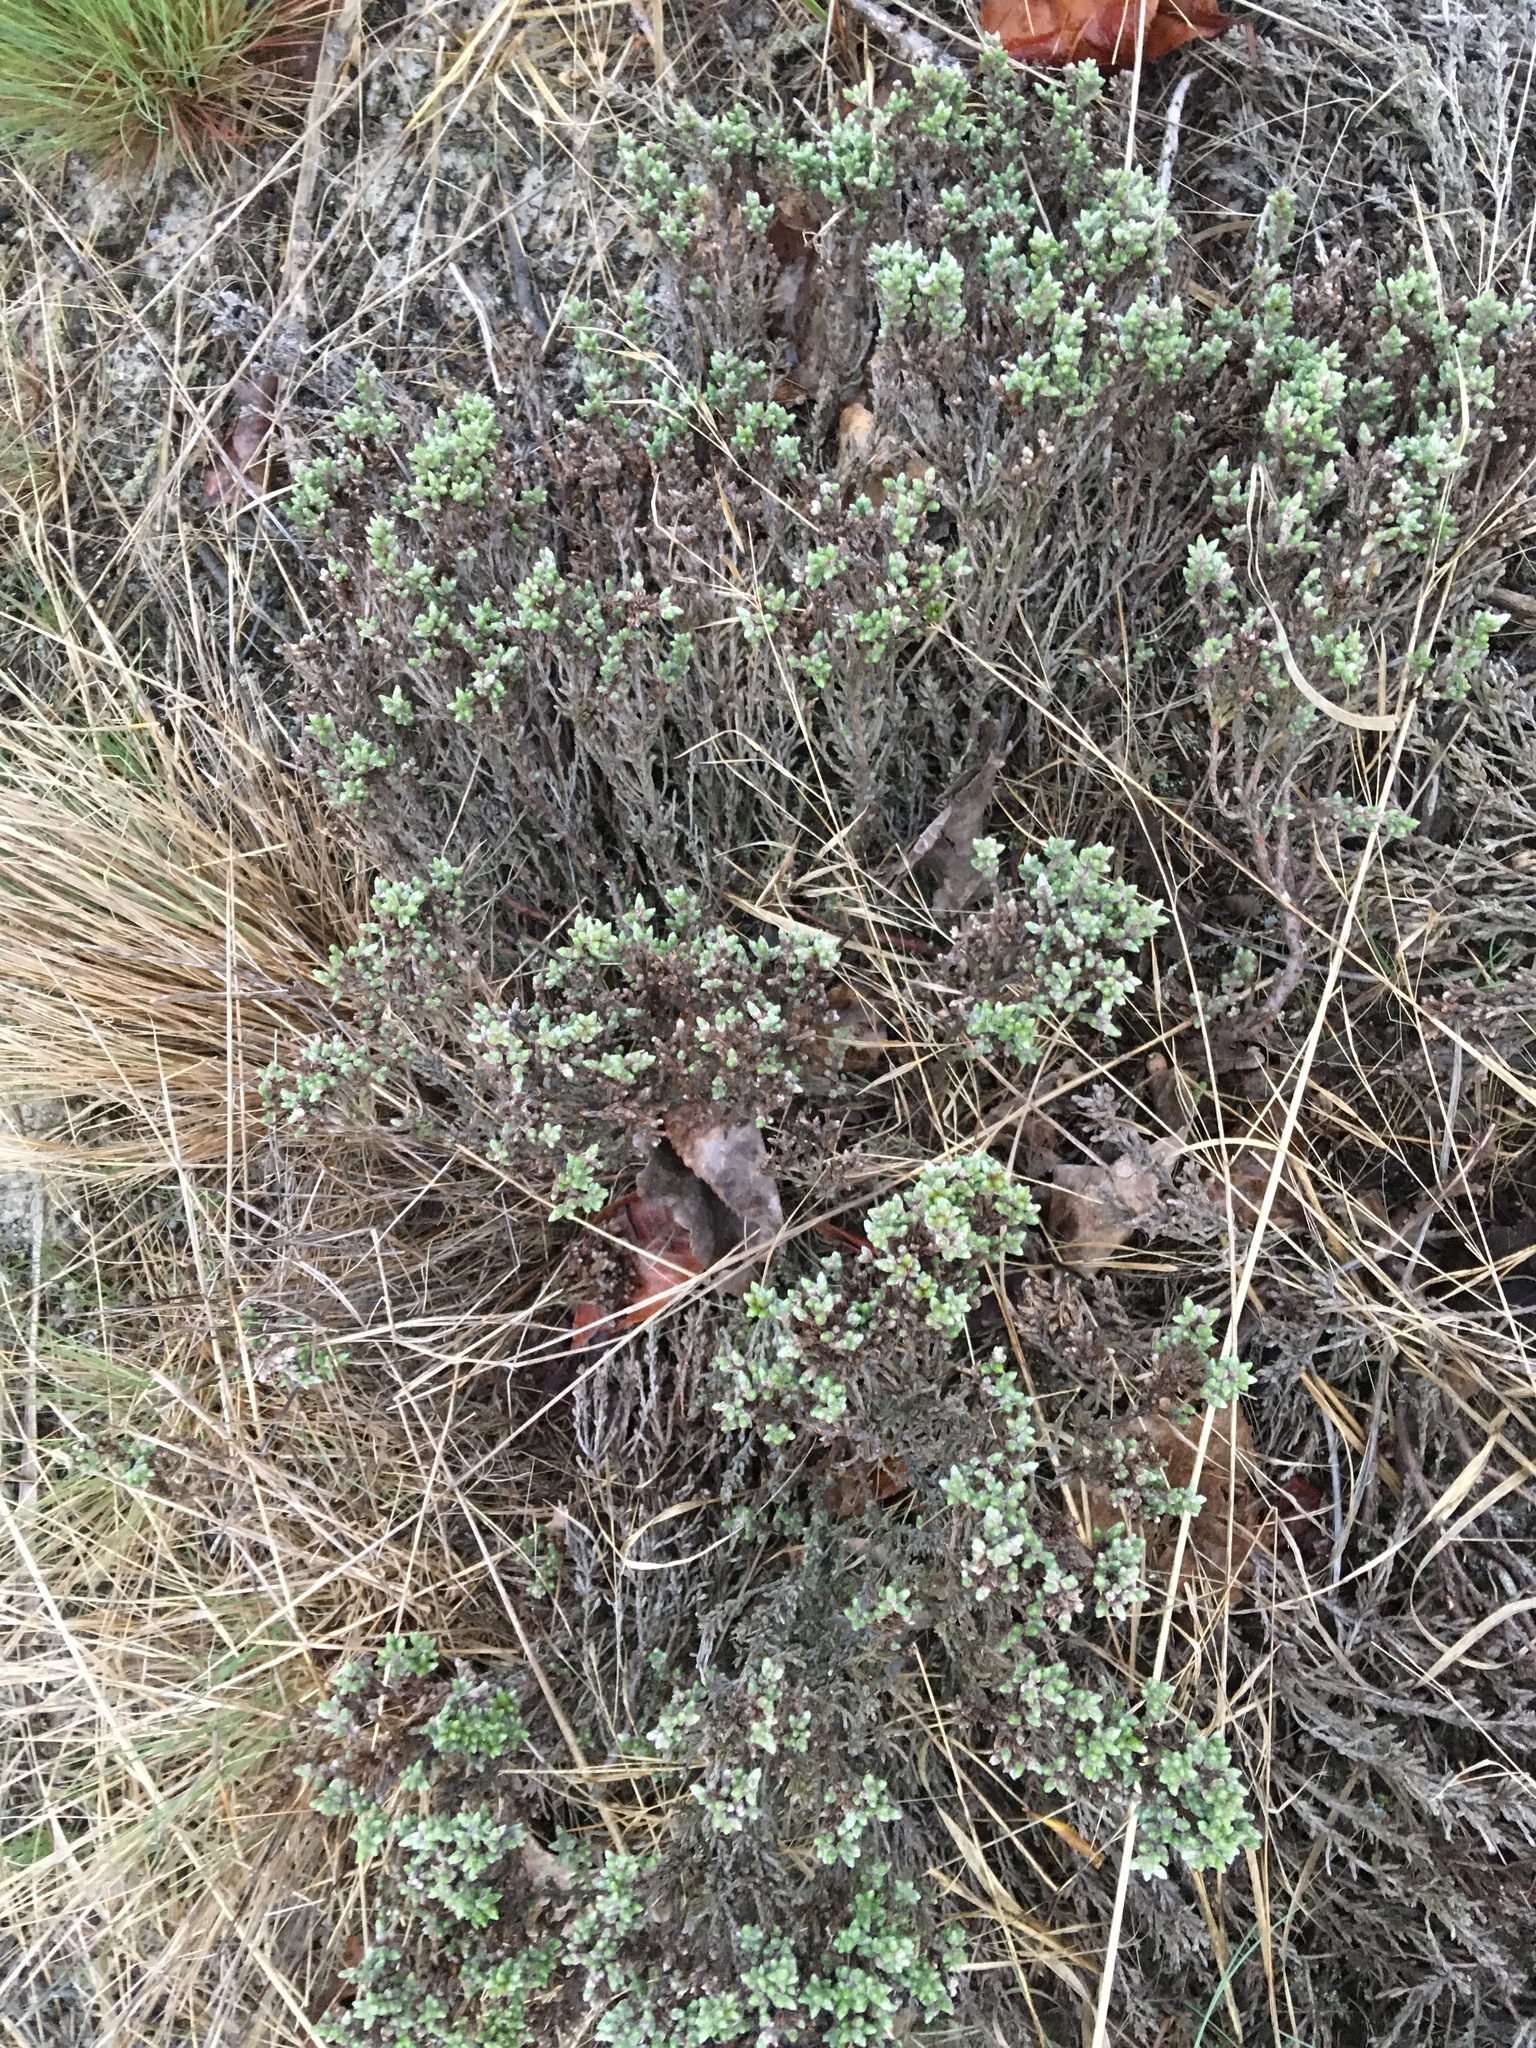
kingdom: Plantae
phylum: Tracheophyta
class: Magnoliopsida
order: Malvales
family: Cistaceae
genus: Hudsonia
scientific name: Hudsonia tomentosa
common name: Beach-heath
